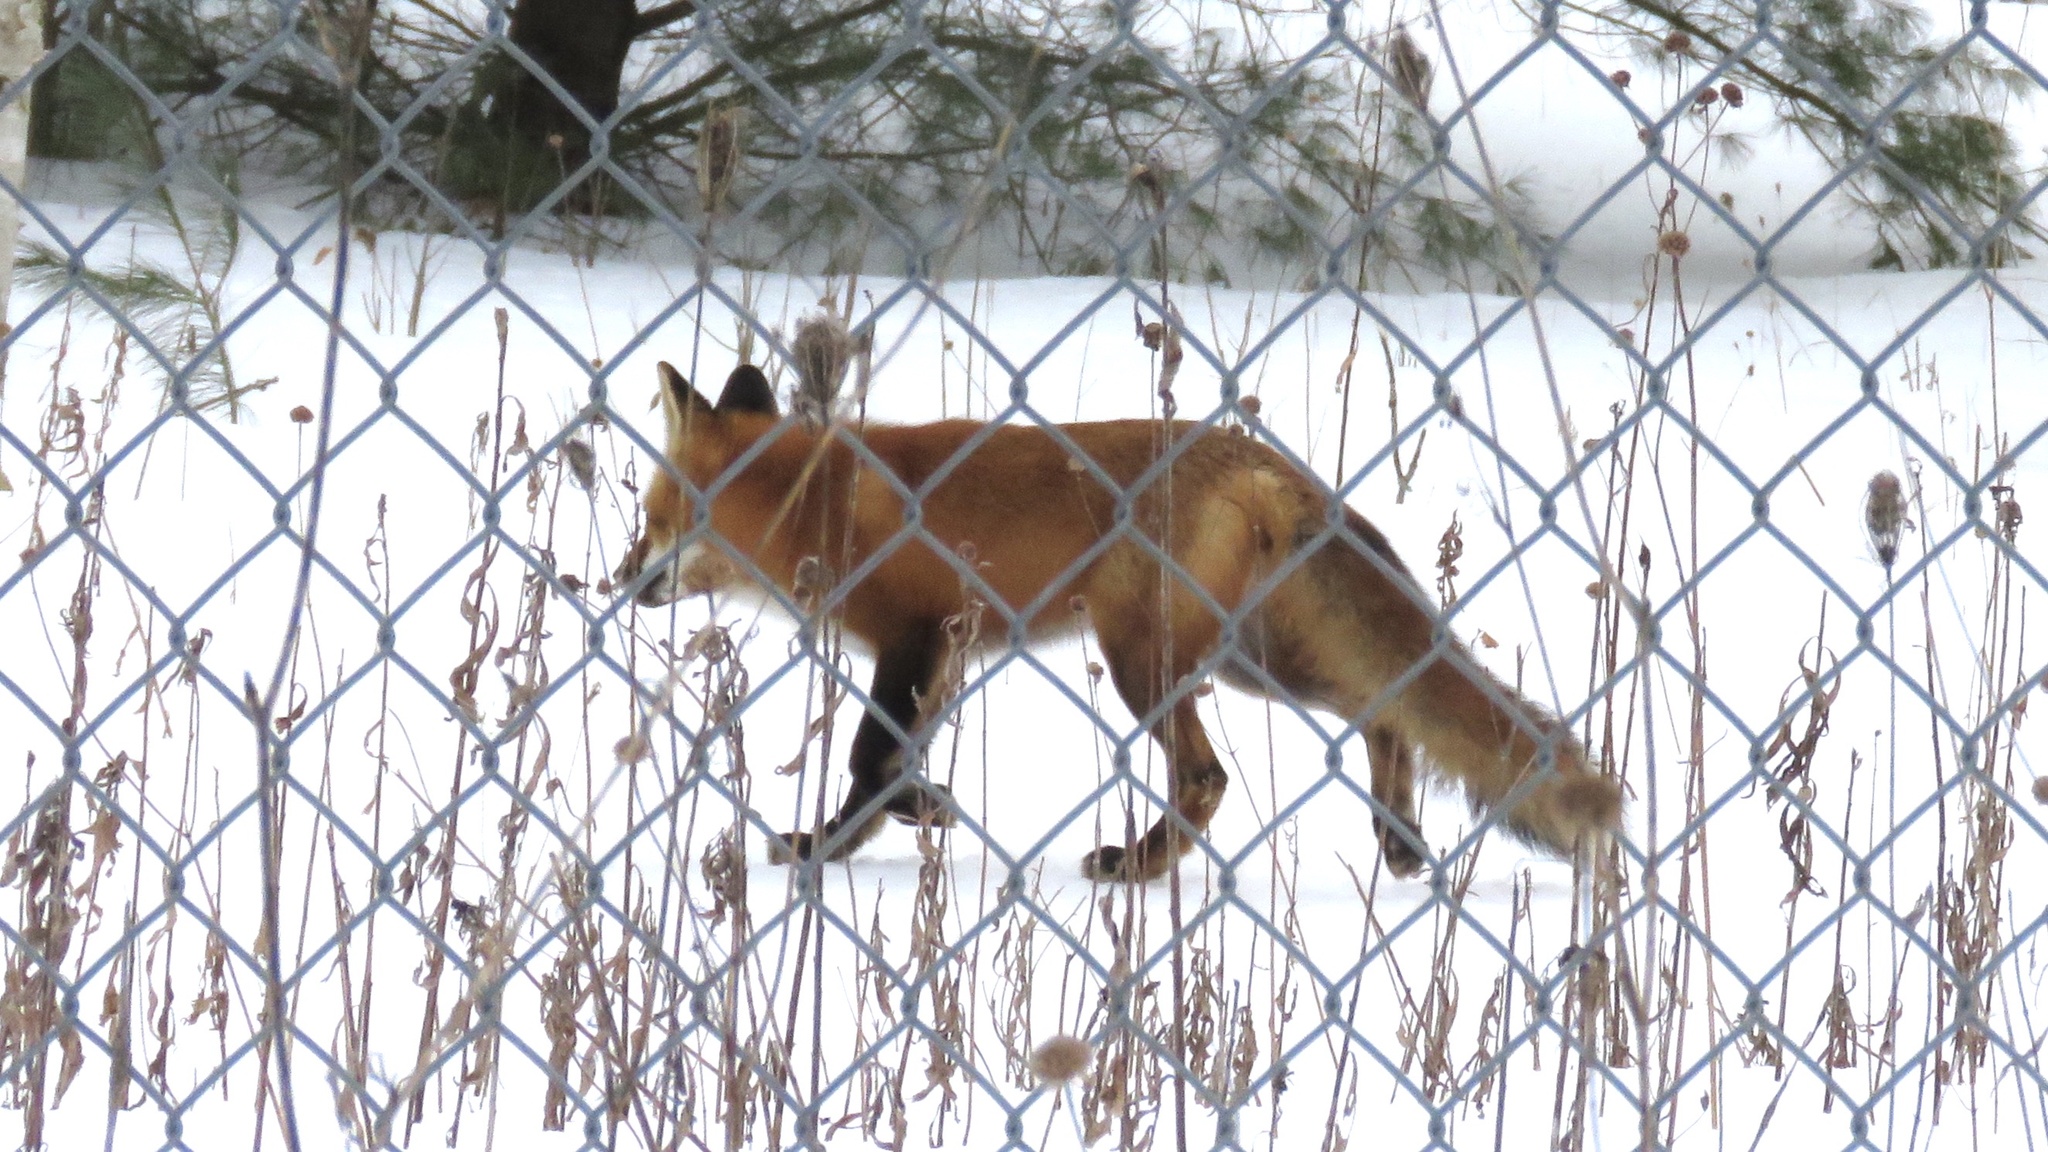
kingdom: Animalia
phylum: Chordata
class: Mammalia
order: Carnivora
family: Canidae
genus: Vulpes
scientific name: Vulpes vulpes
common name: Red fox
